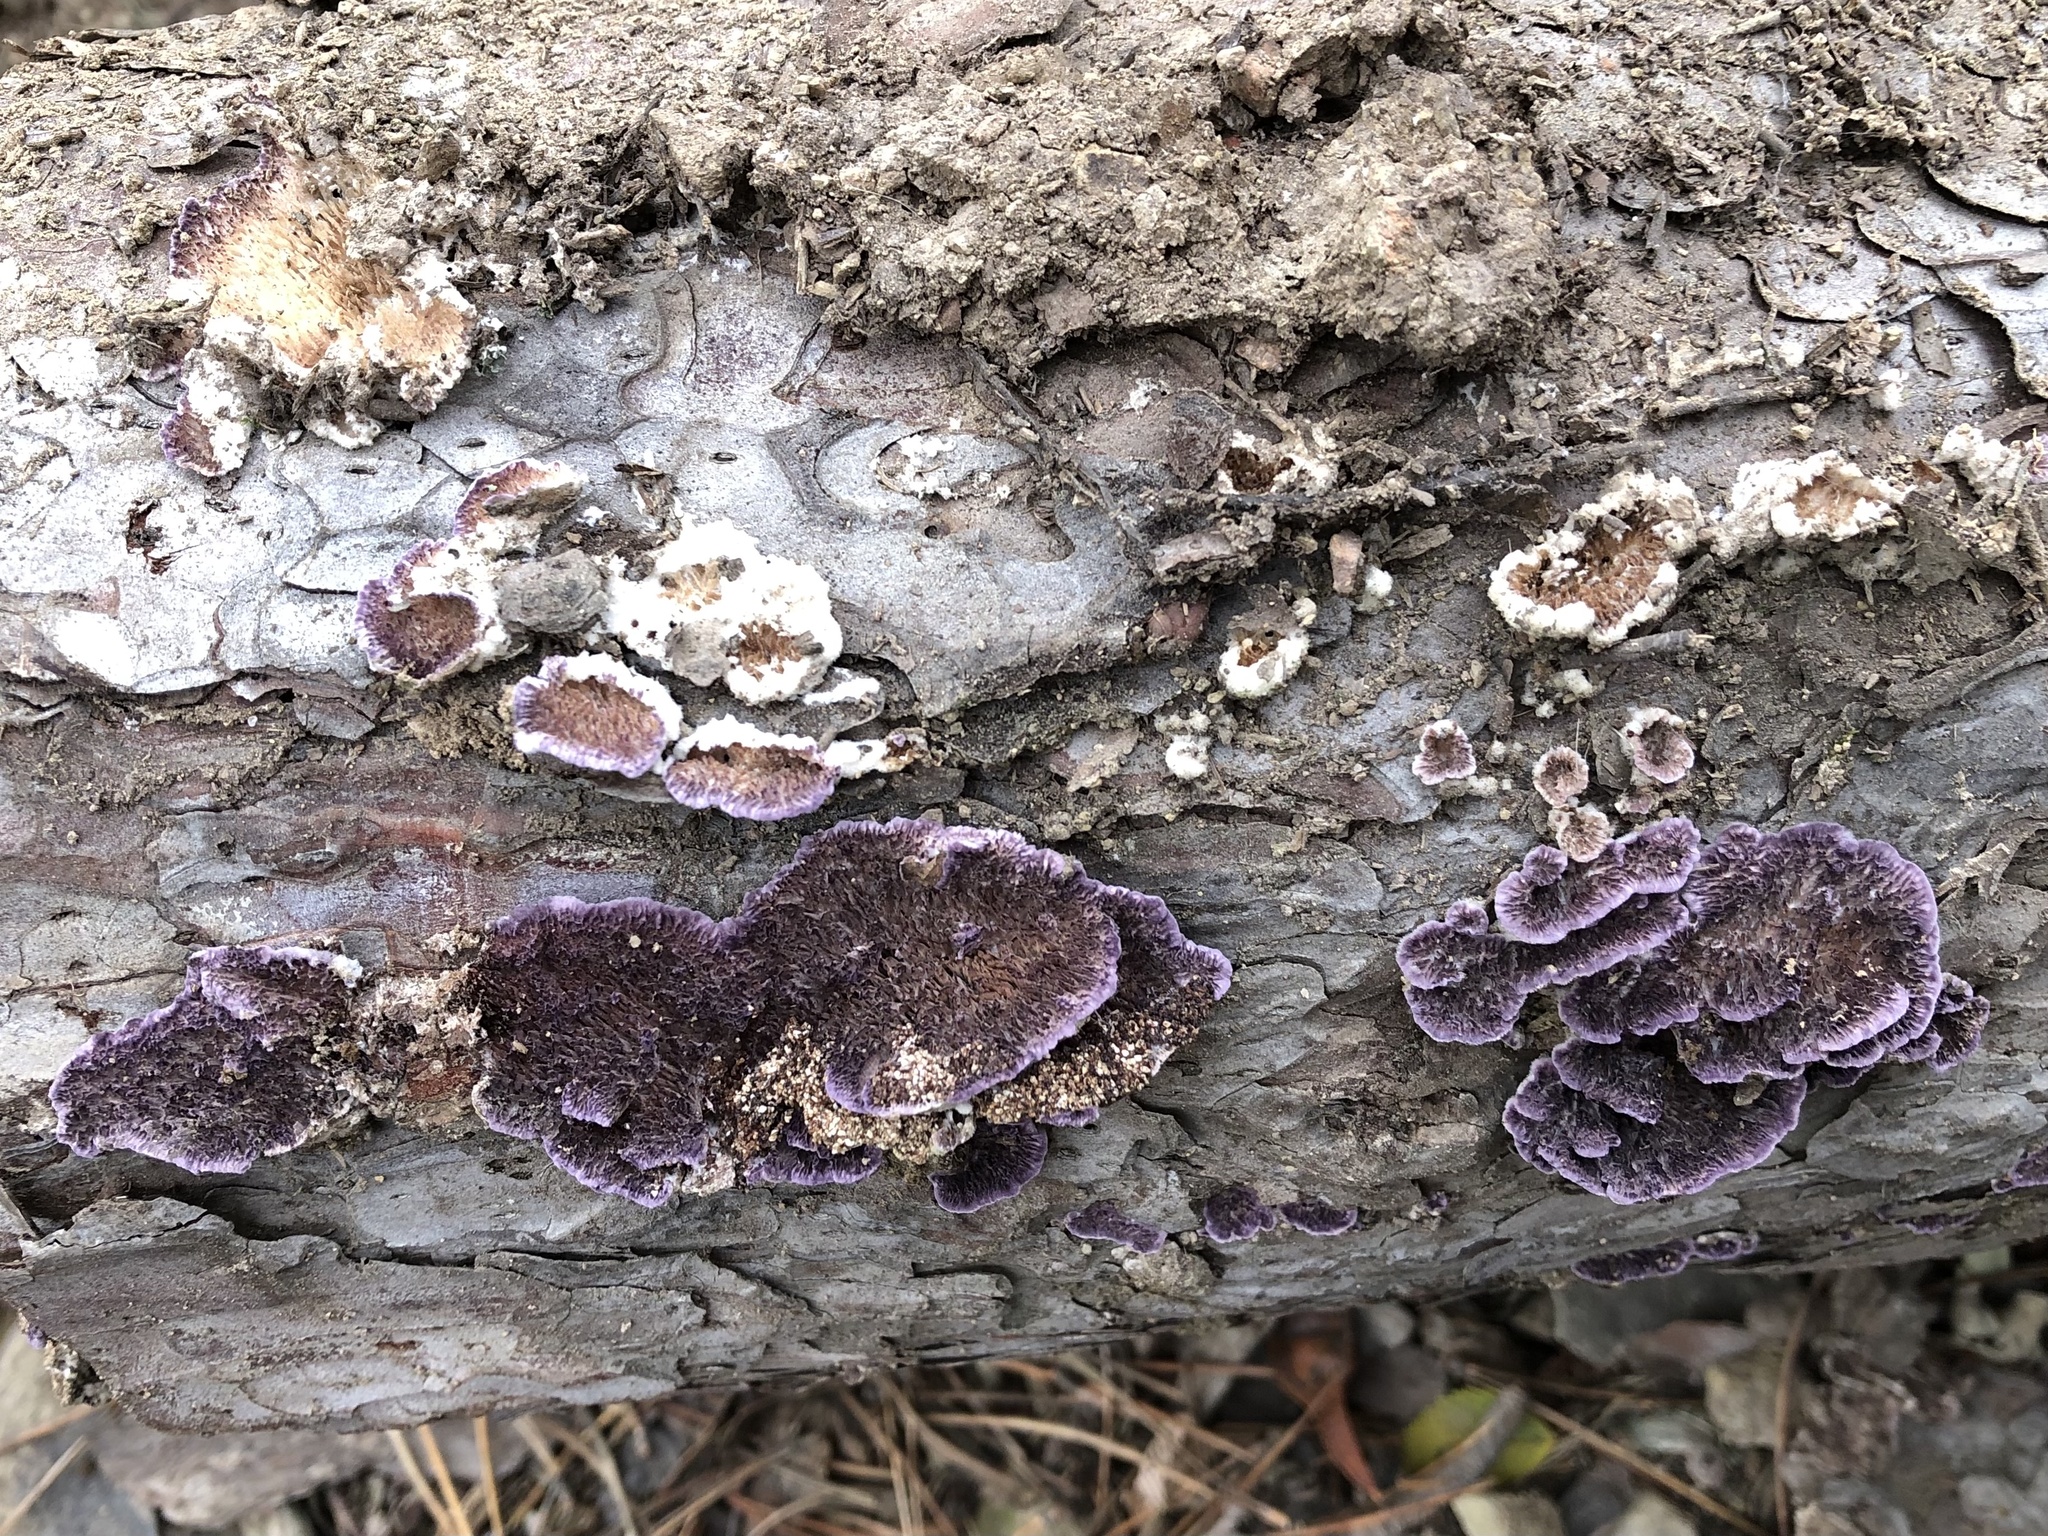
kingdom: Fungi
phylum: Basidiomycota
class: Agaricomycetes
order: Agaricales
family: Cyphellaceae
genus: Chondrostereum
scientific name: Chondrostereum purpureum
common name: Silver leaf disease
